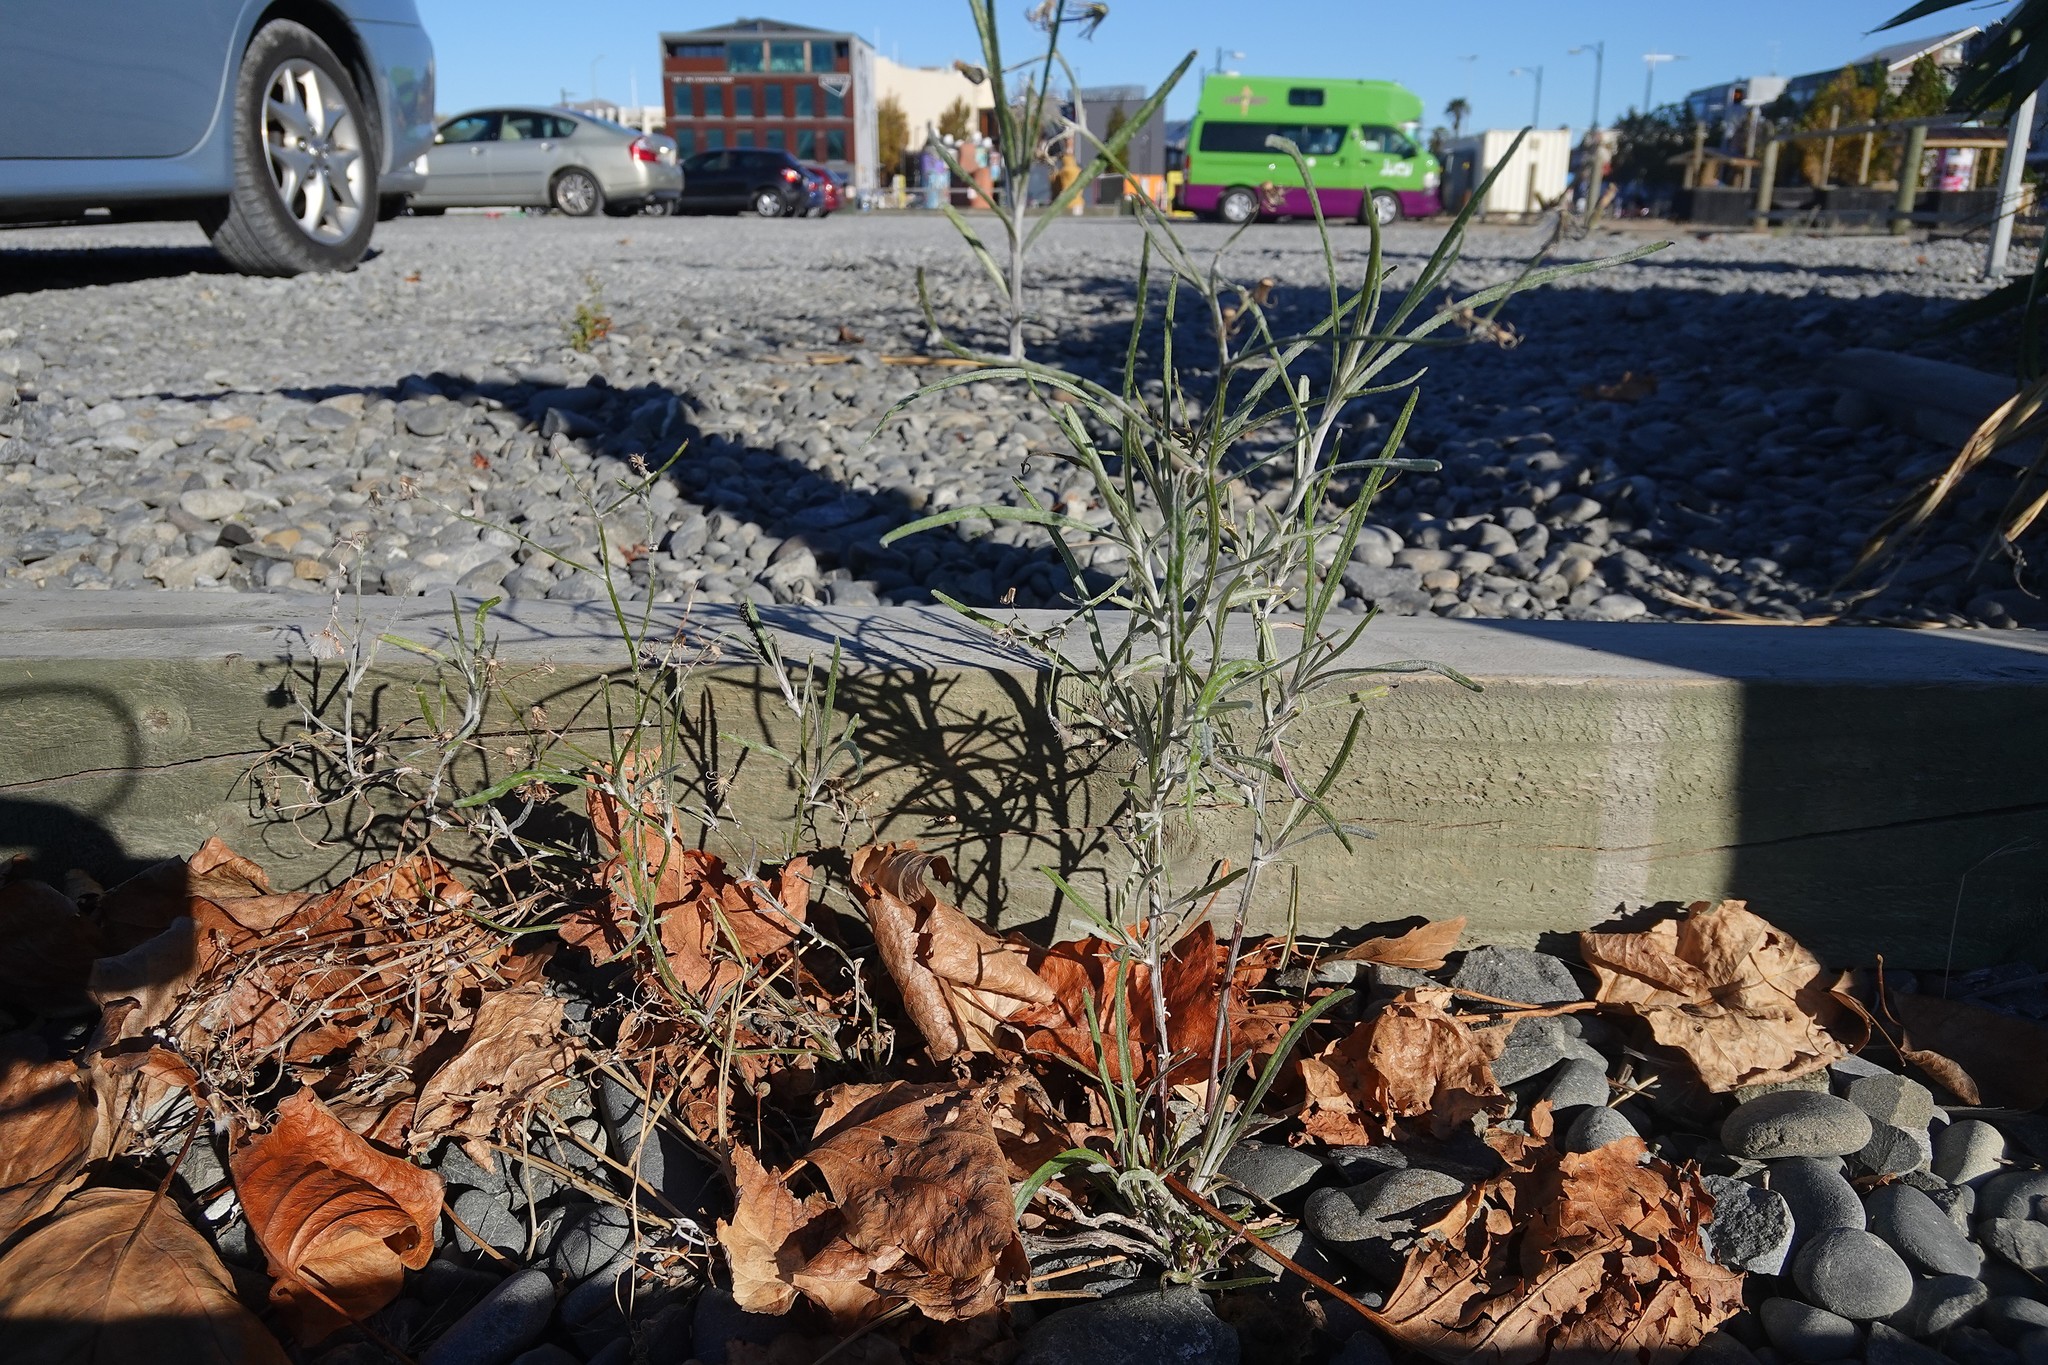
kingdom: Plantae
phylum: Tracheophyta
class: Magnoliopsida
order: Asterales
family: Asteraceae
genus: Senecio
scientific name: Senecio quadridentatus
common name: Cotton fireweed
